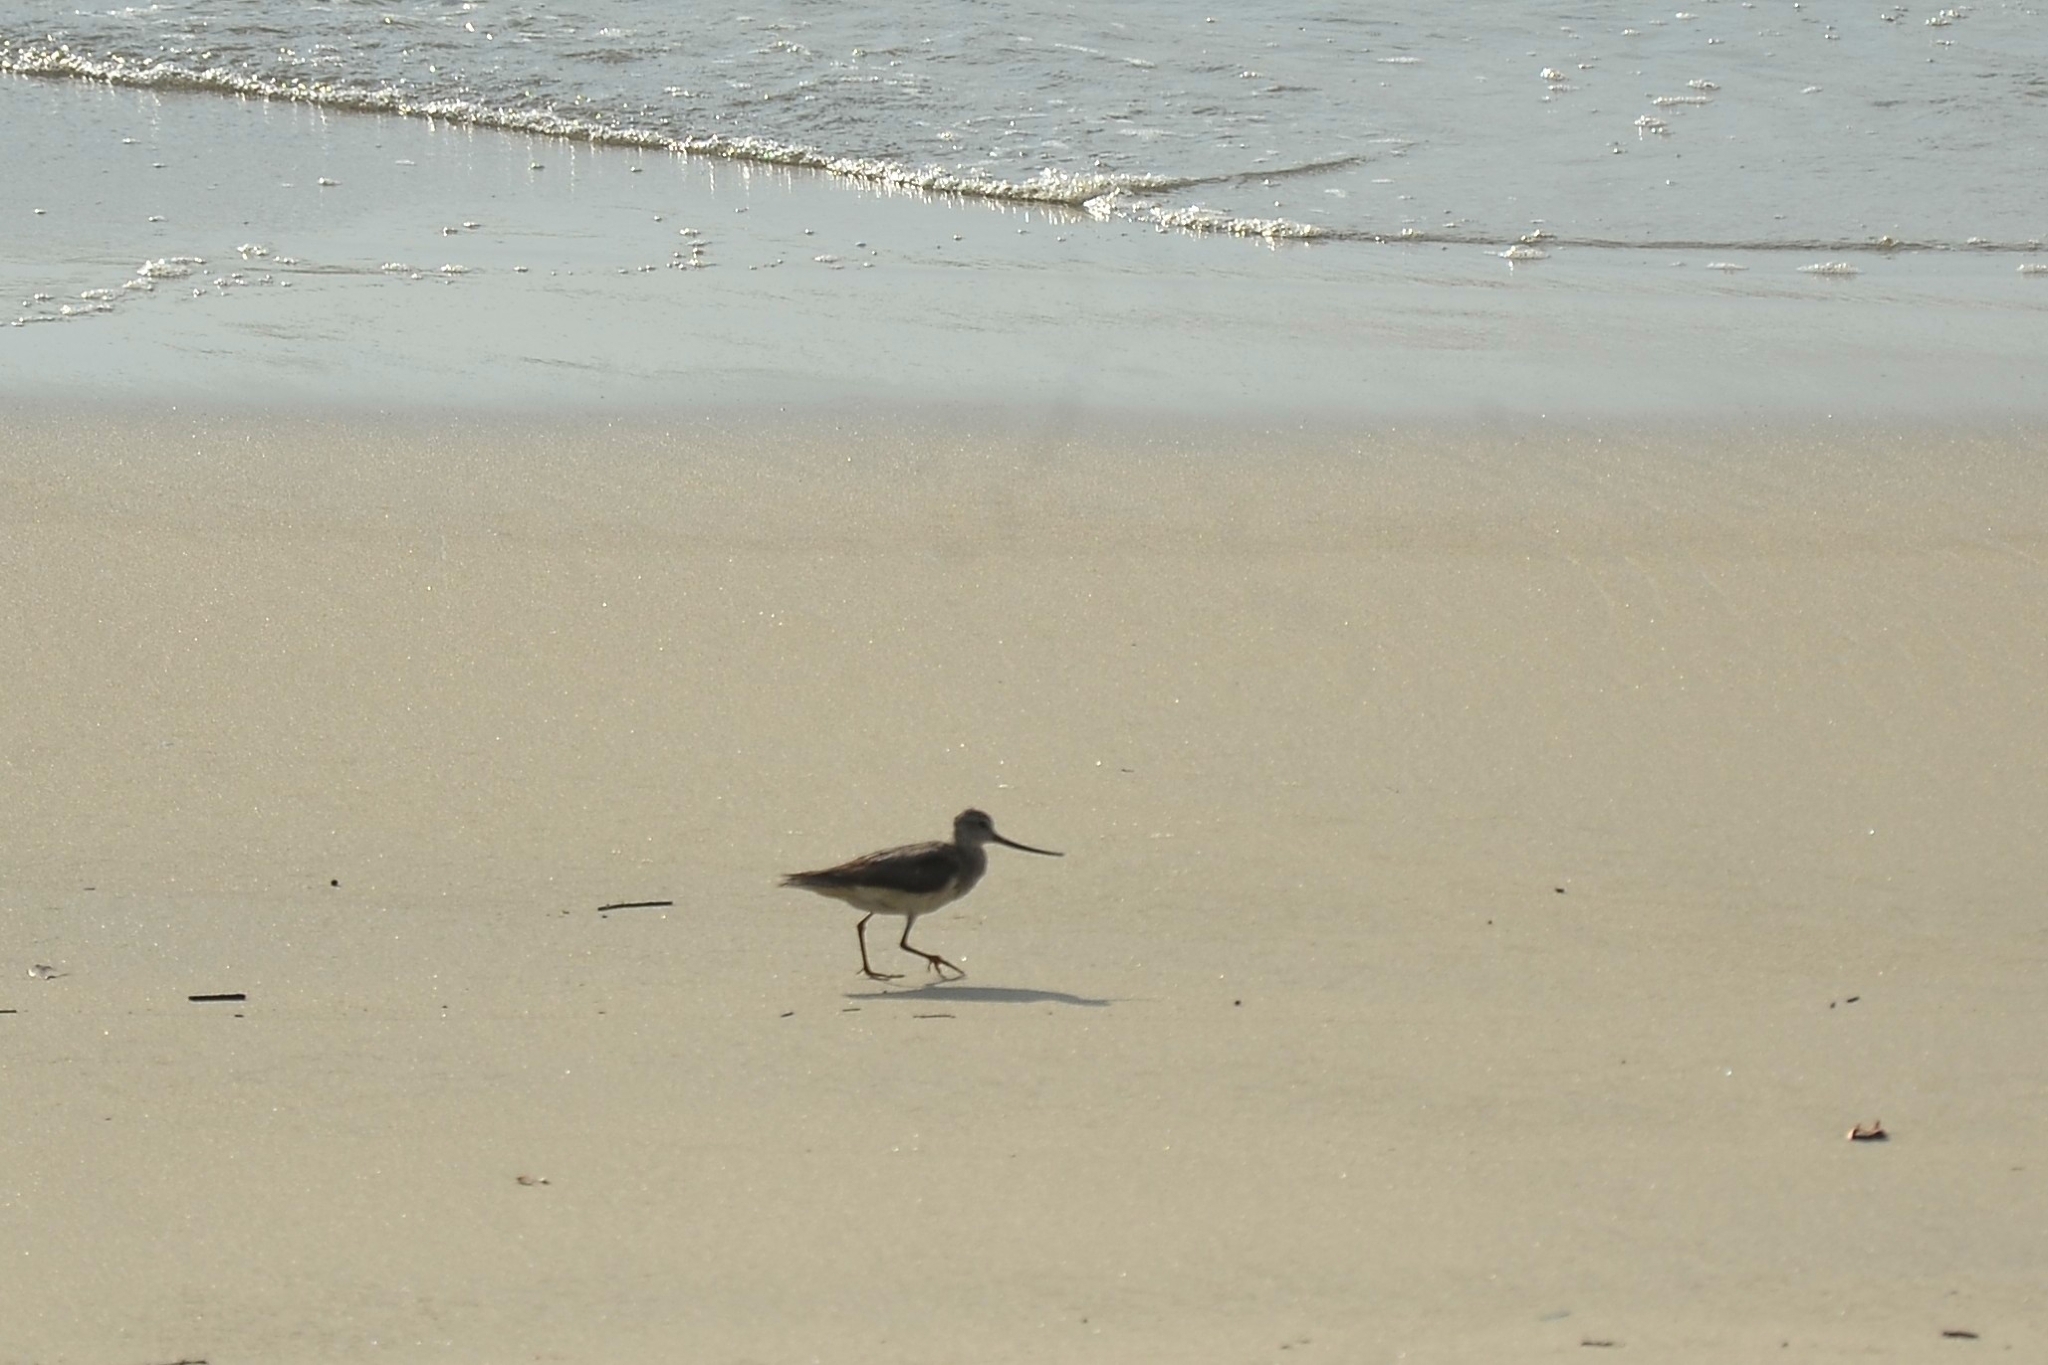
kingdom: Animalia
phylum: Chordata
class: Aves
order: Charadriiformes
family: Scolopacidae
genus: Xenus
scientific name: Xenus cinereus
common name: Terek sandpiper
